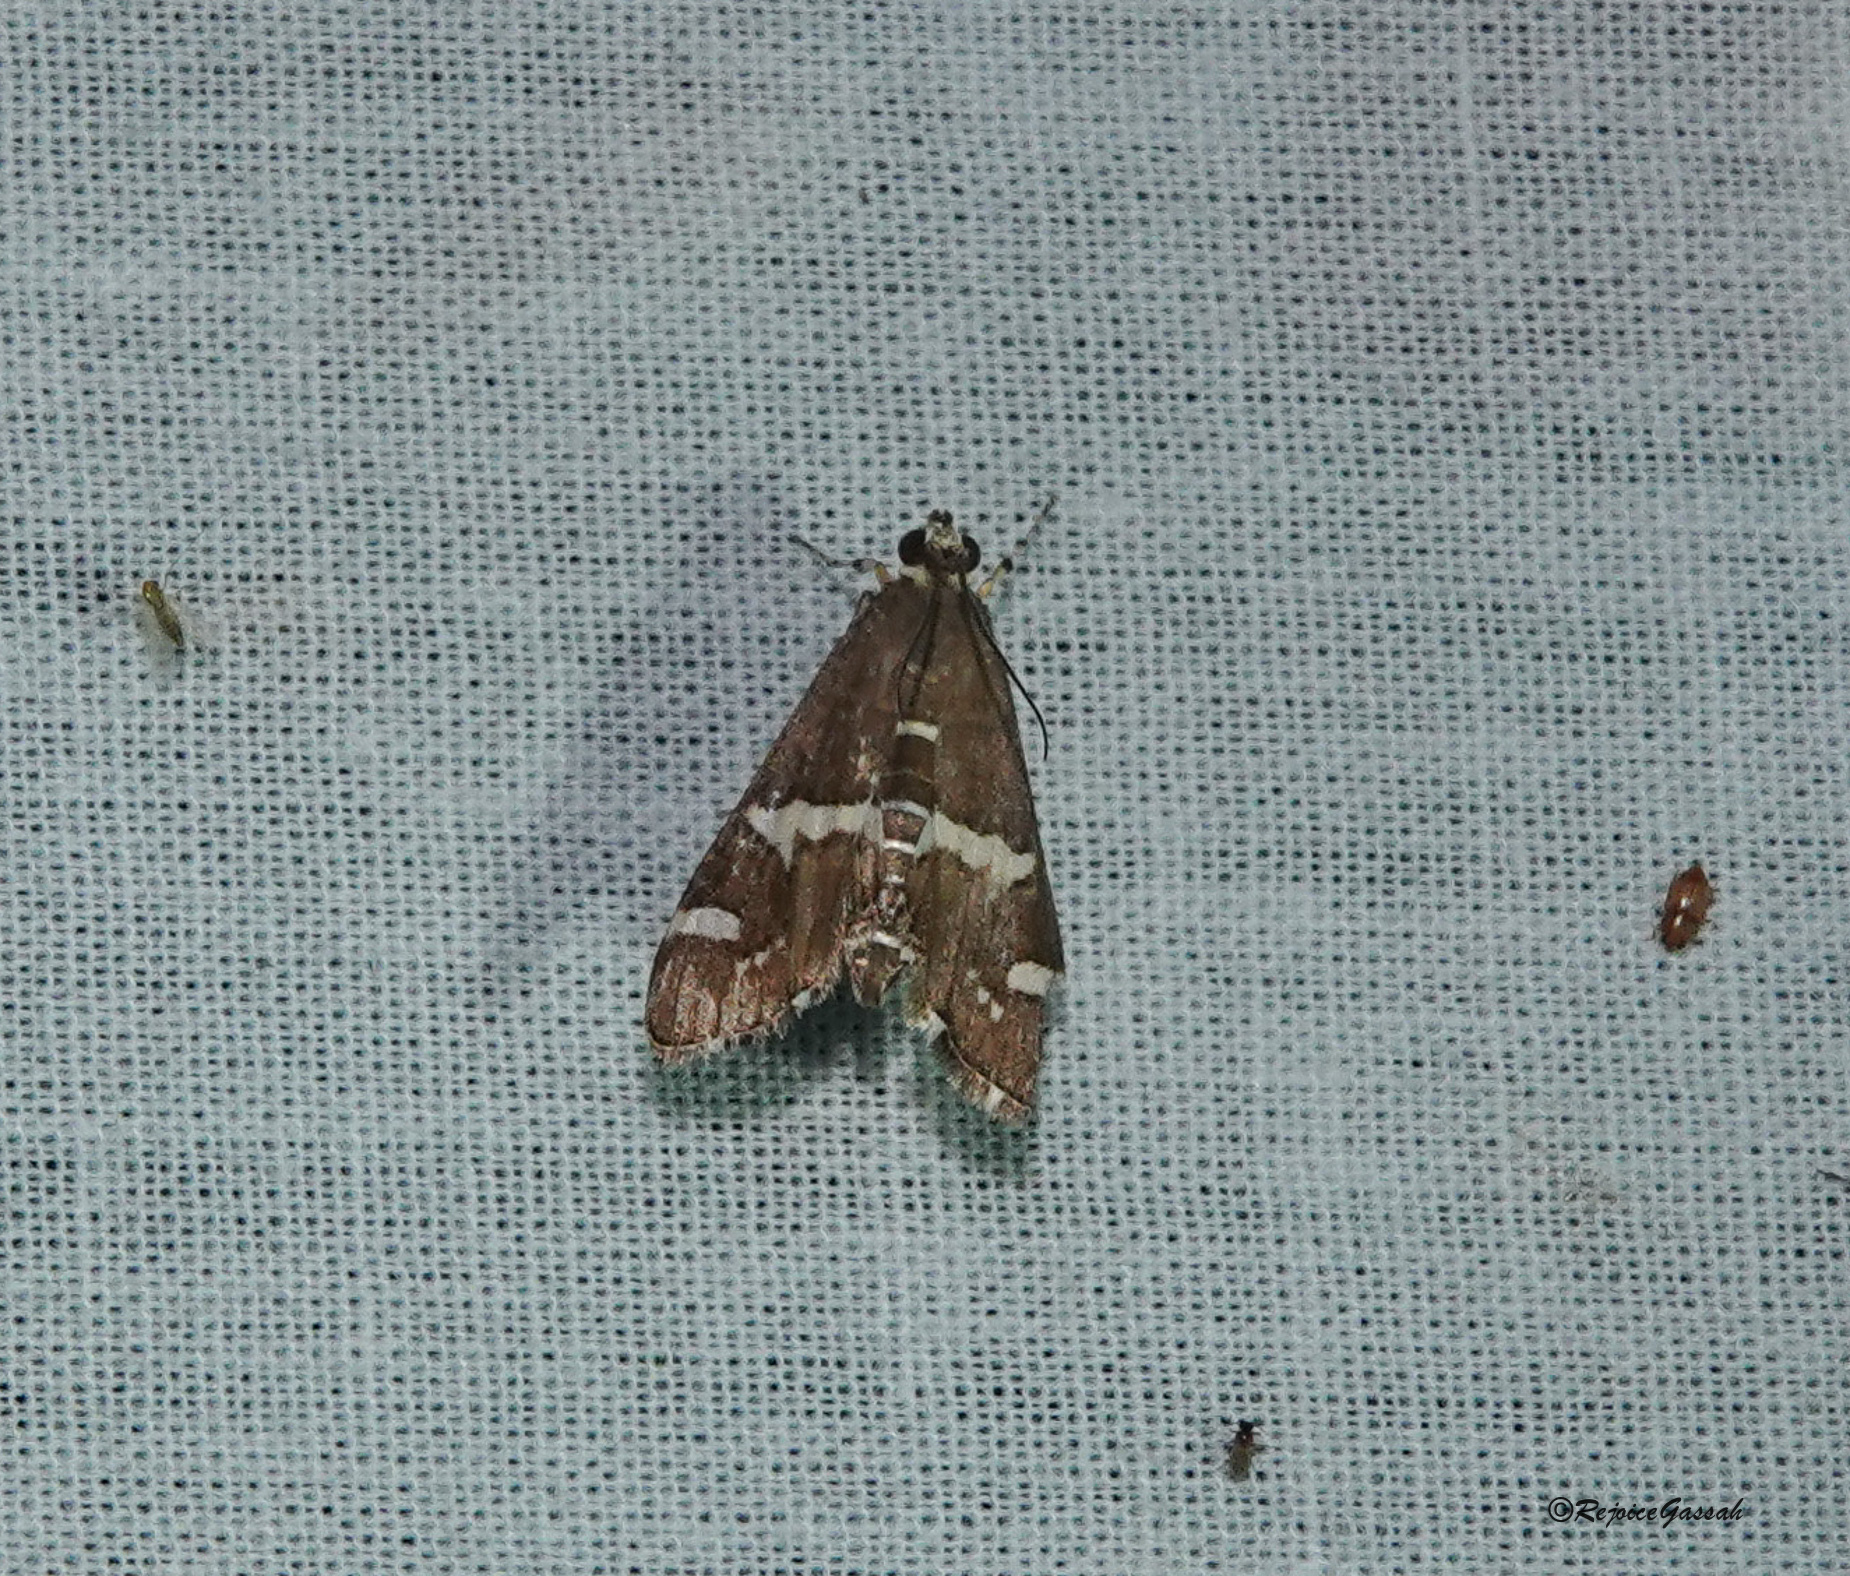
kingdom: Animalia
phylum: Arthropoda
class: Insecta
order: Lepidoptera
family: Crambidae
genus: Spoladea
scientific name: Spoladea recurvalis
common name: Beet webworm moth
